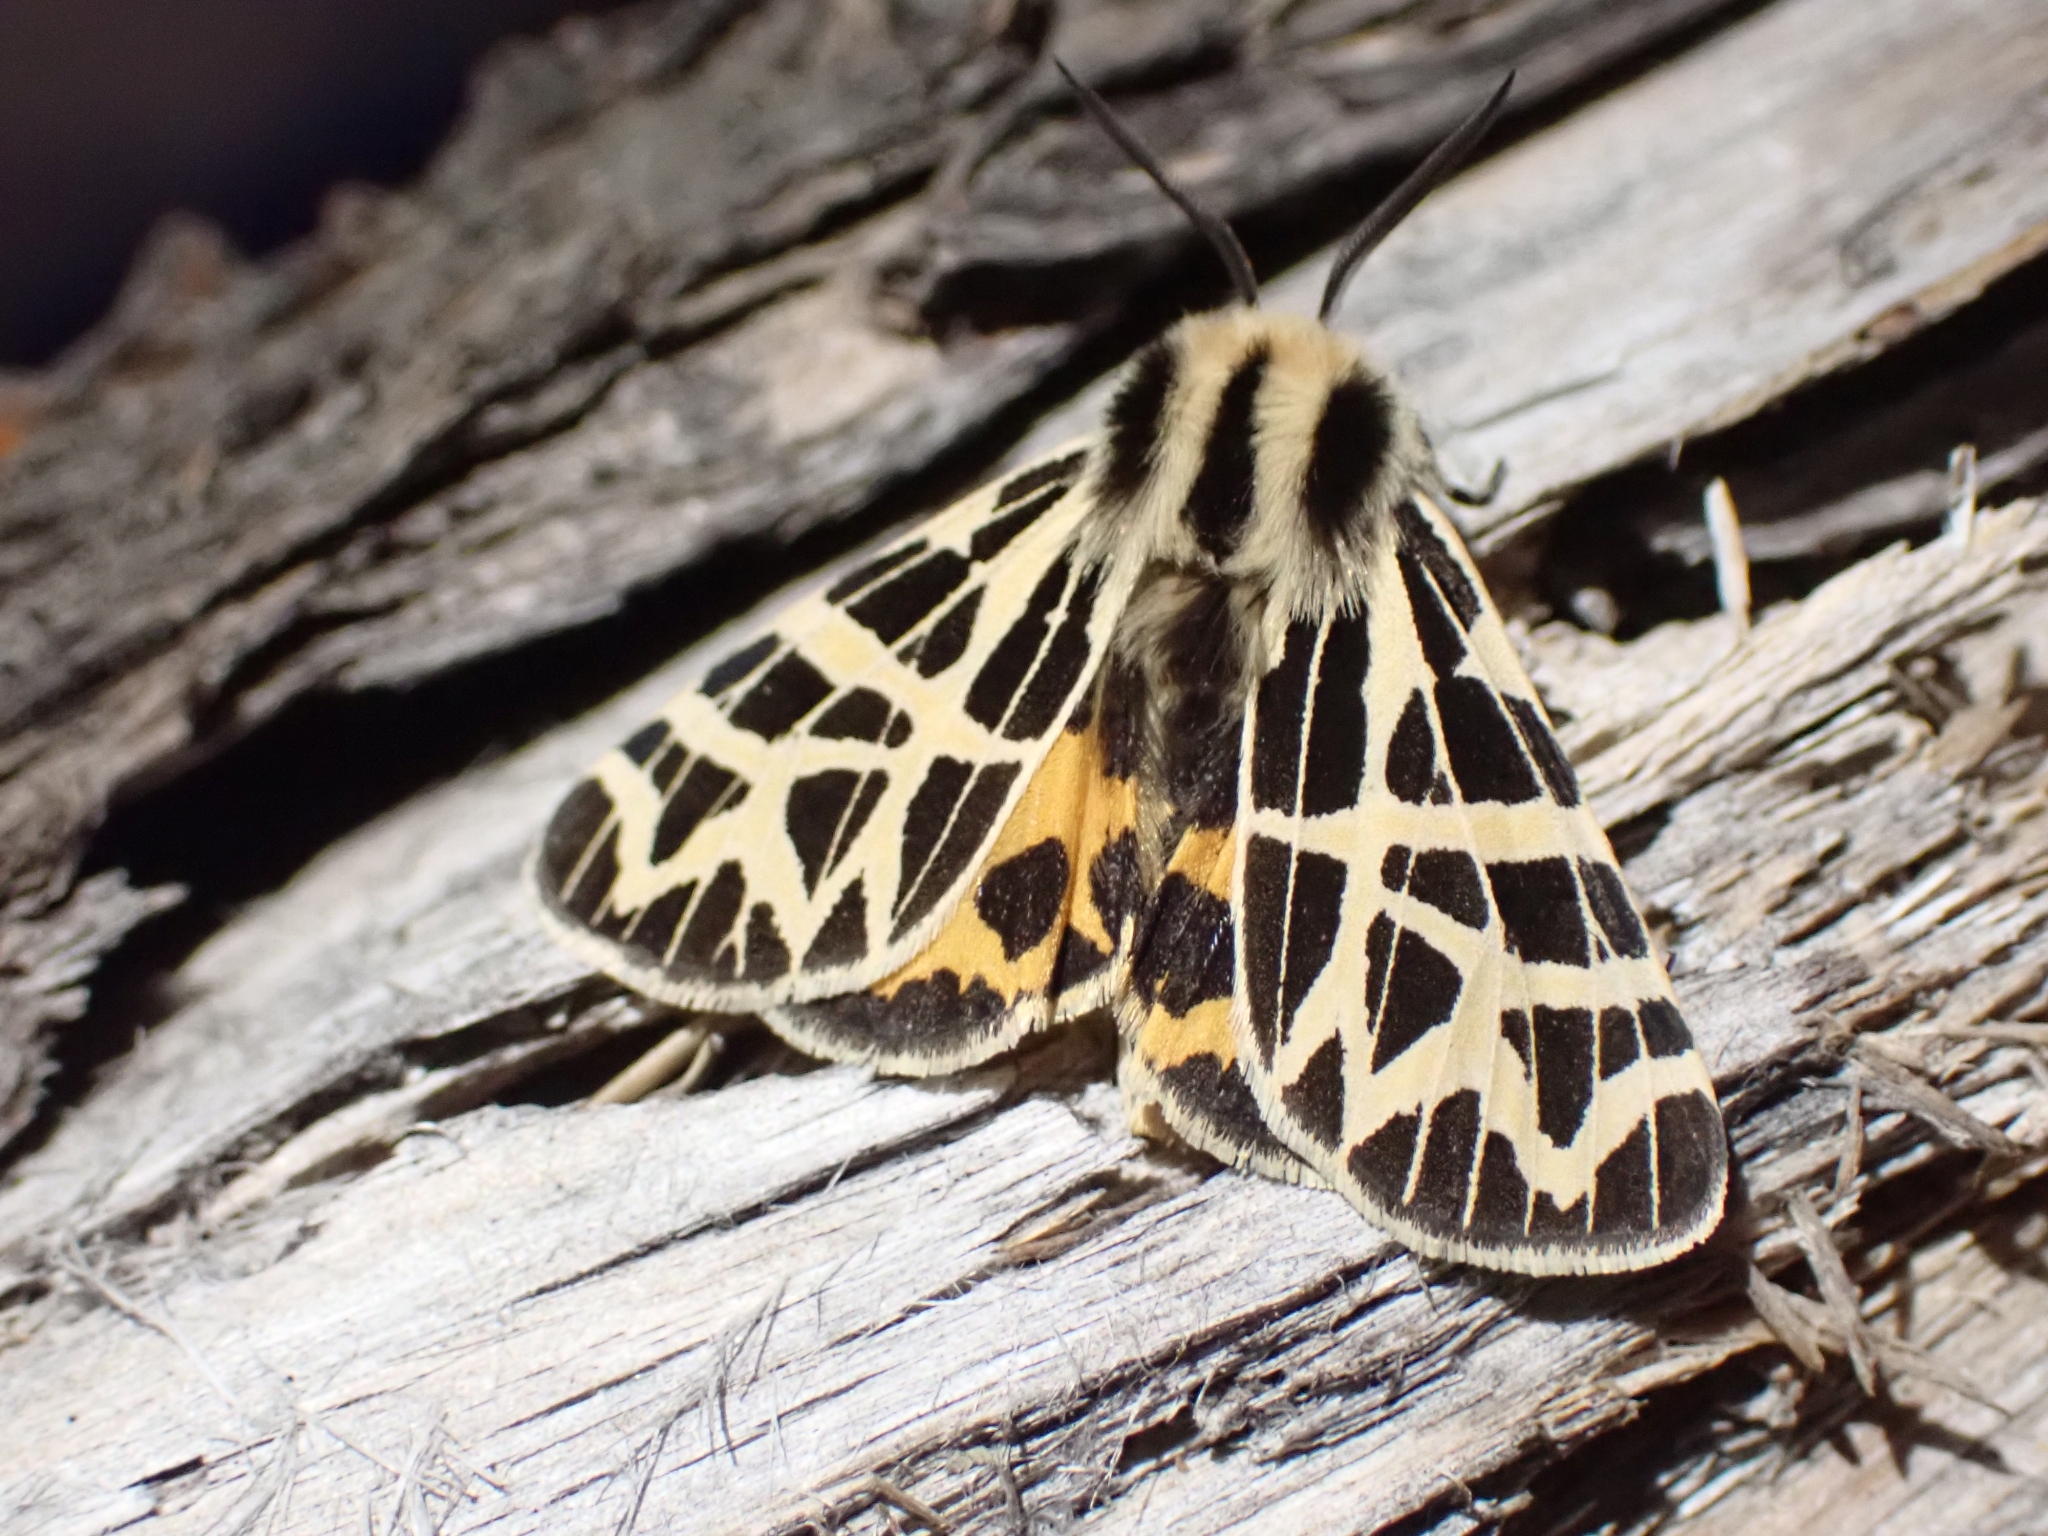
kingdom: Animalia
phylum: Arthropoda
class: Insecta
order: Lepidoptera
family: Erebidae
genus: Apantesis
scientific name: Apantesis
